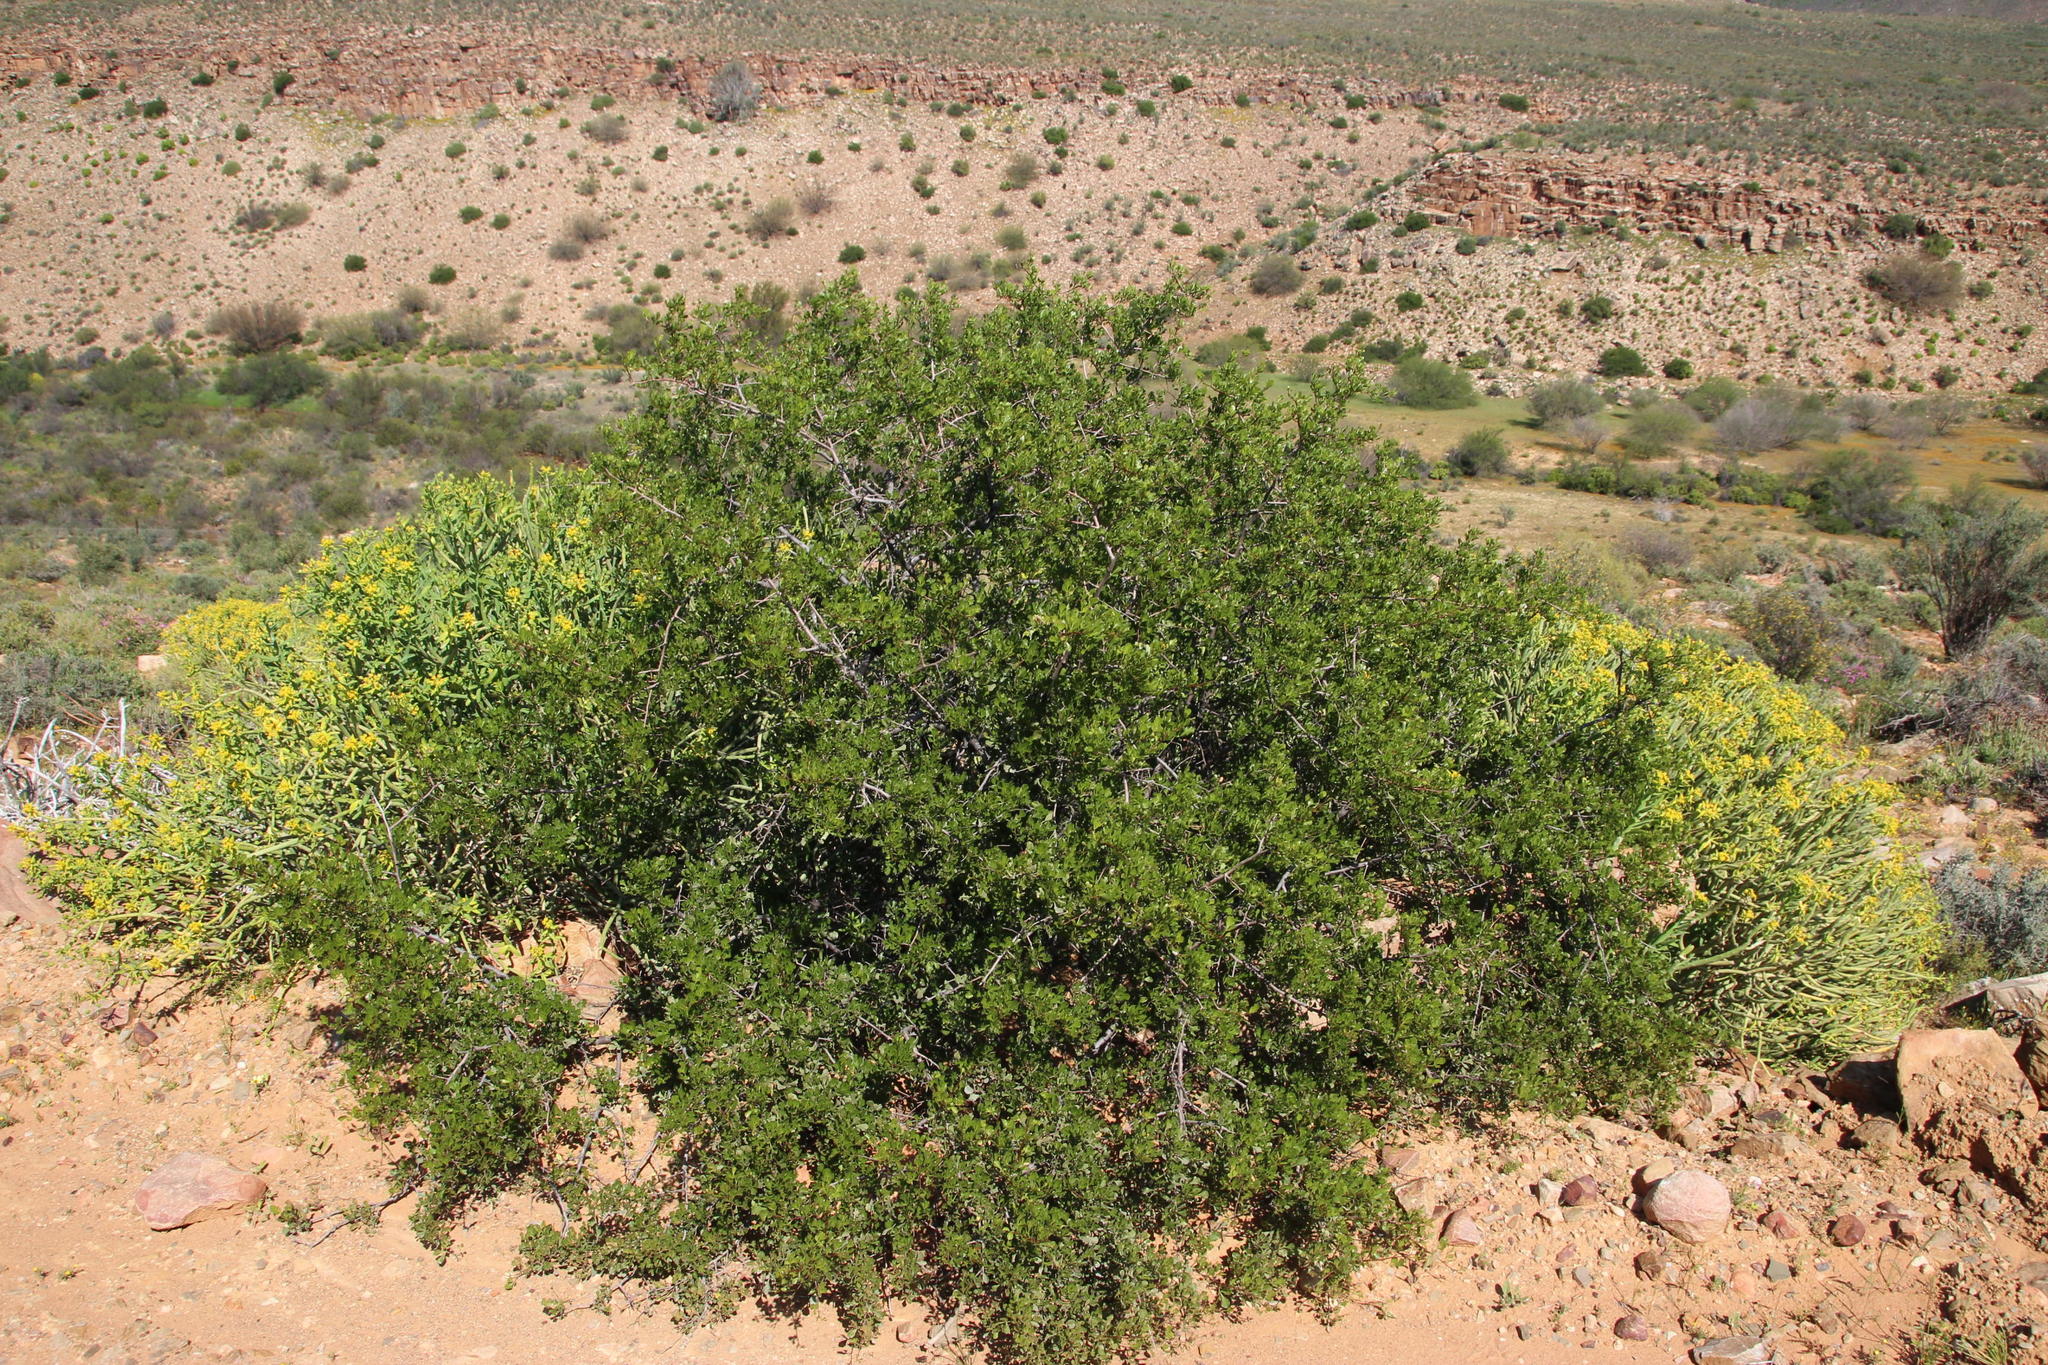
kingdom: Plantae
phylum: Tracheophyta
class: Magnoliopsida
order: Sapindales
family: Anacardiaceae
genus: Searsia
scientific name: Searsia undulata
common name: Namaqua kunibush
